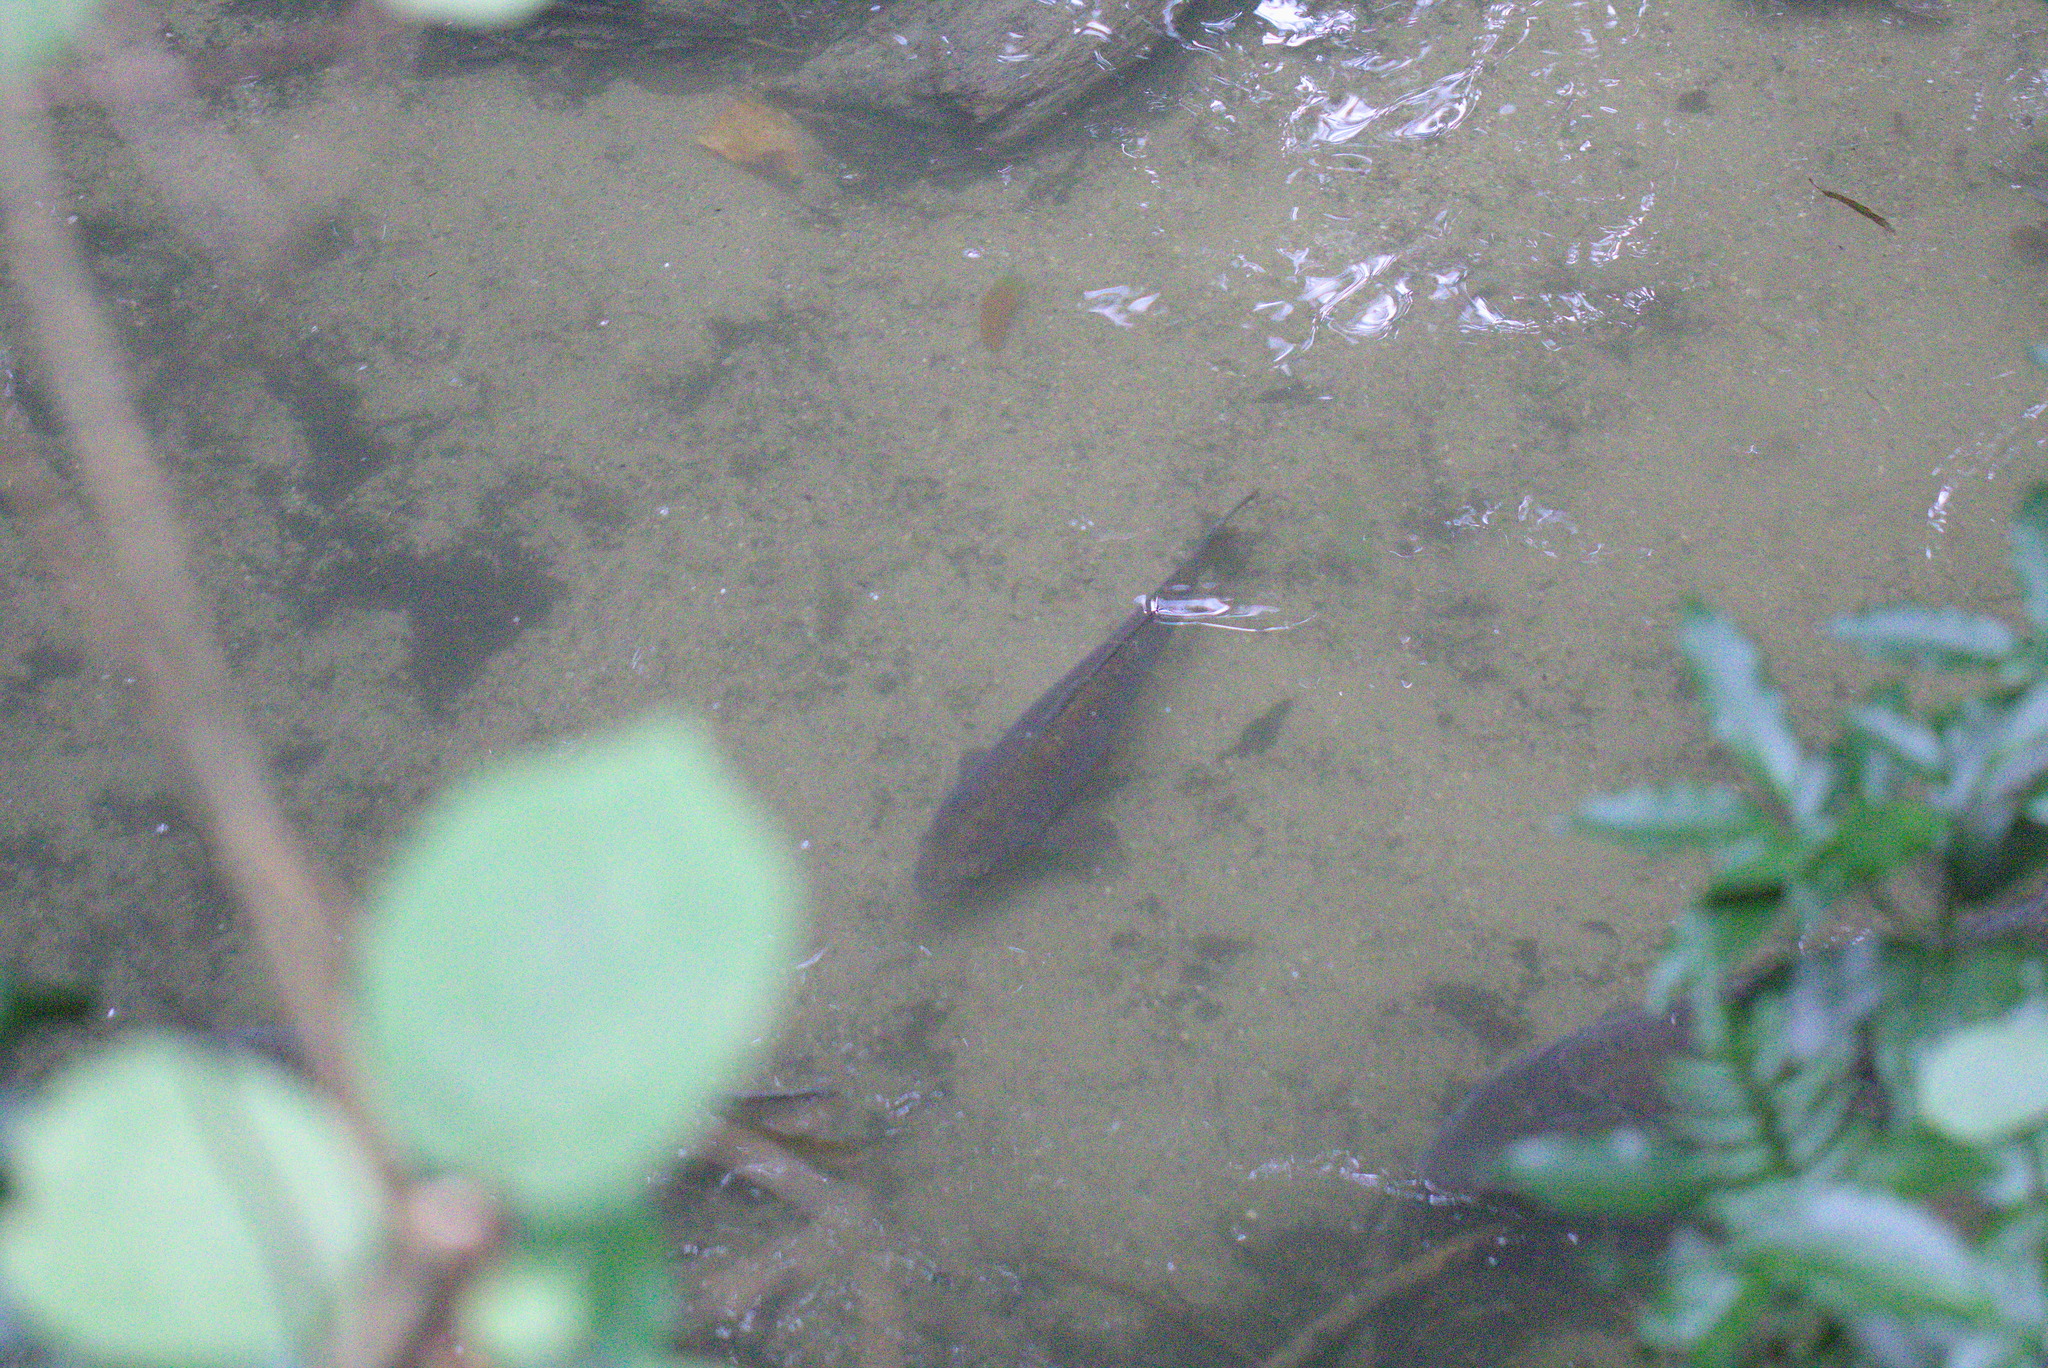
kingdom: Animalia
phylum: Chordata
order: Cypriniformes
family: Cyprinidae
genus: Cyprinus
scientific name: Cyprinus carpio
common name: Common carp
